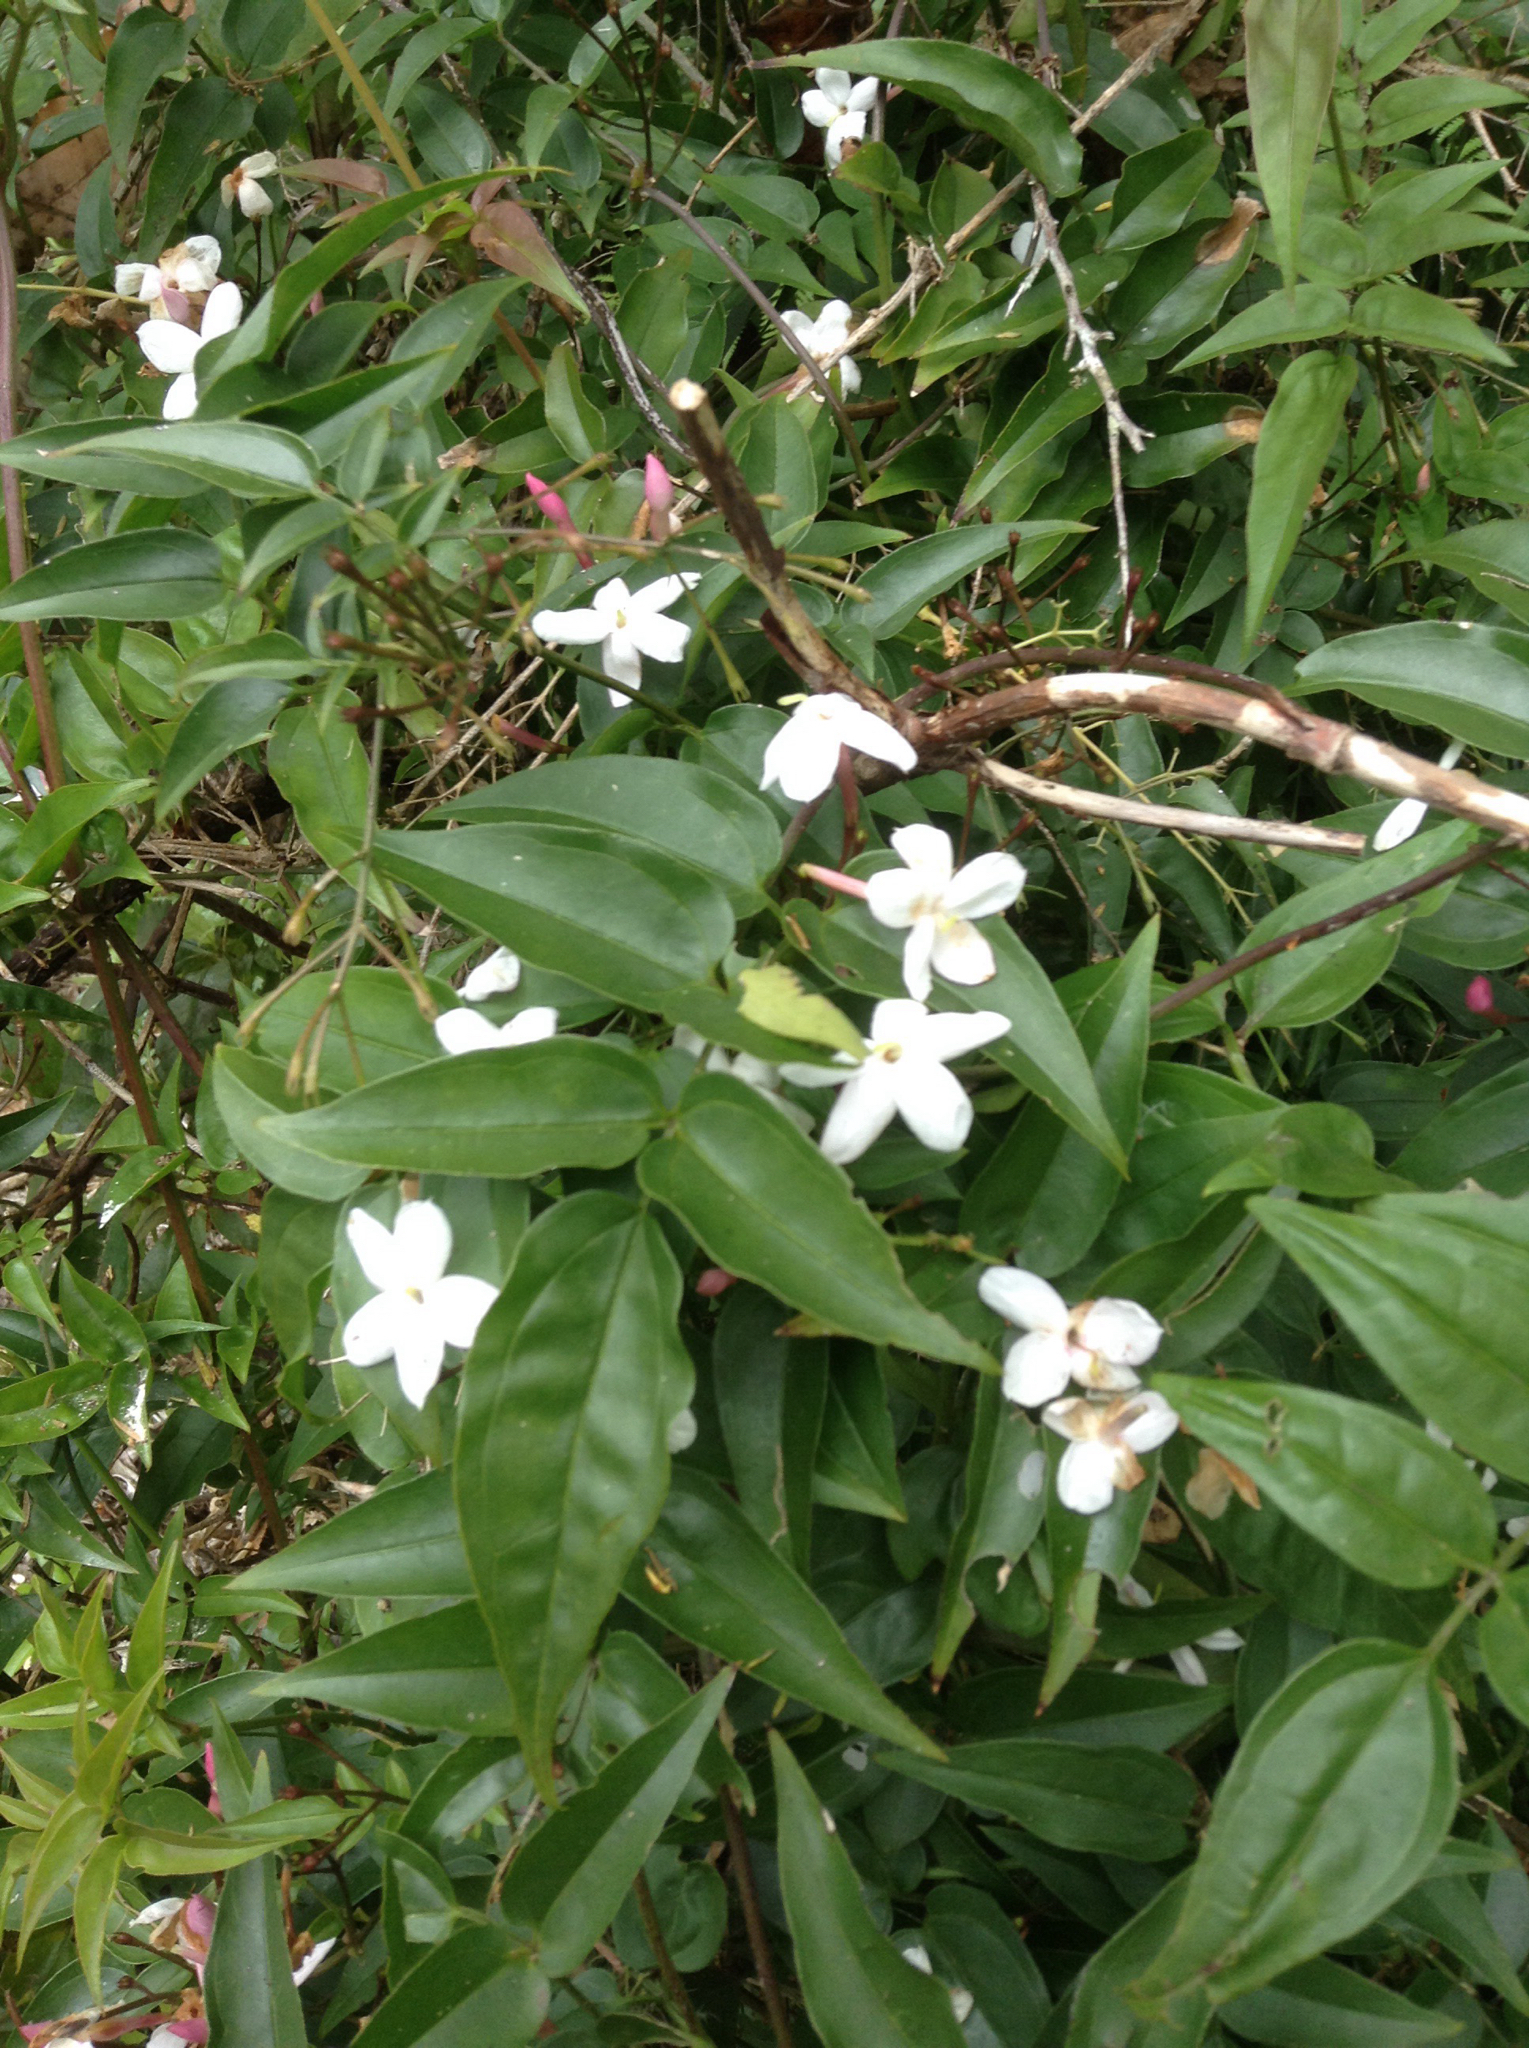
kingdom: Plantae
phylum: Tracheophyta
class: Magnoliopsida
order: Lamiales
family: Oleaceae
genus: Jasminum
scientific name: Jasminum polyanthum
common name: Pink jasmine
